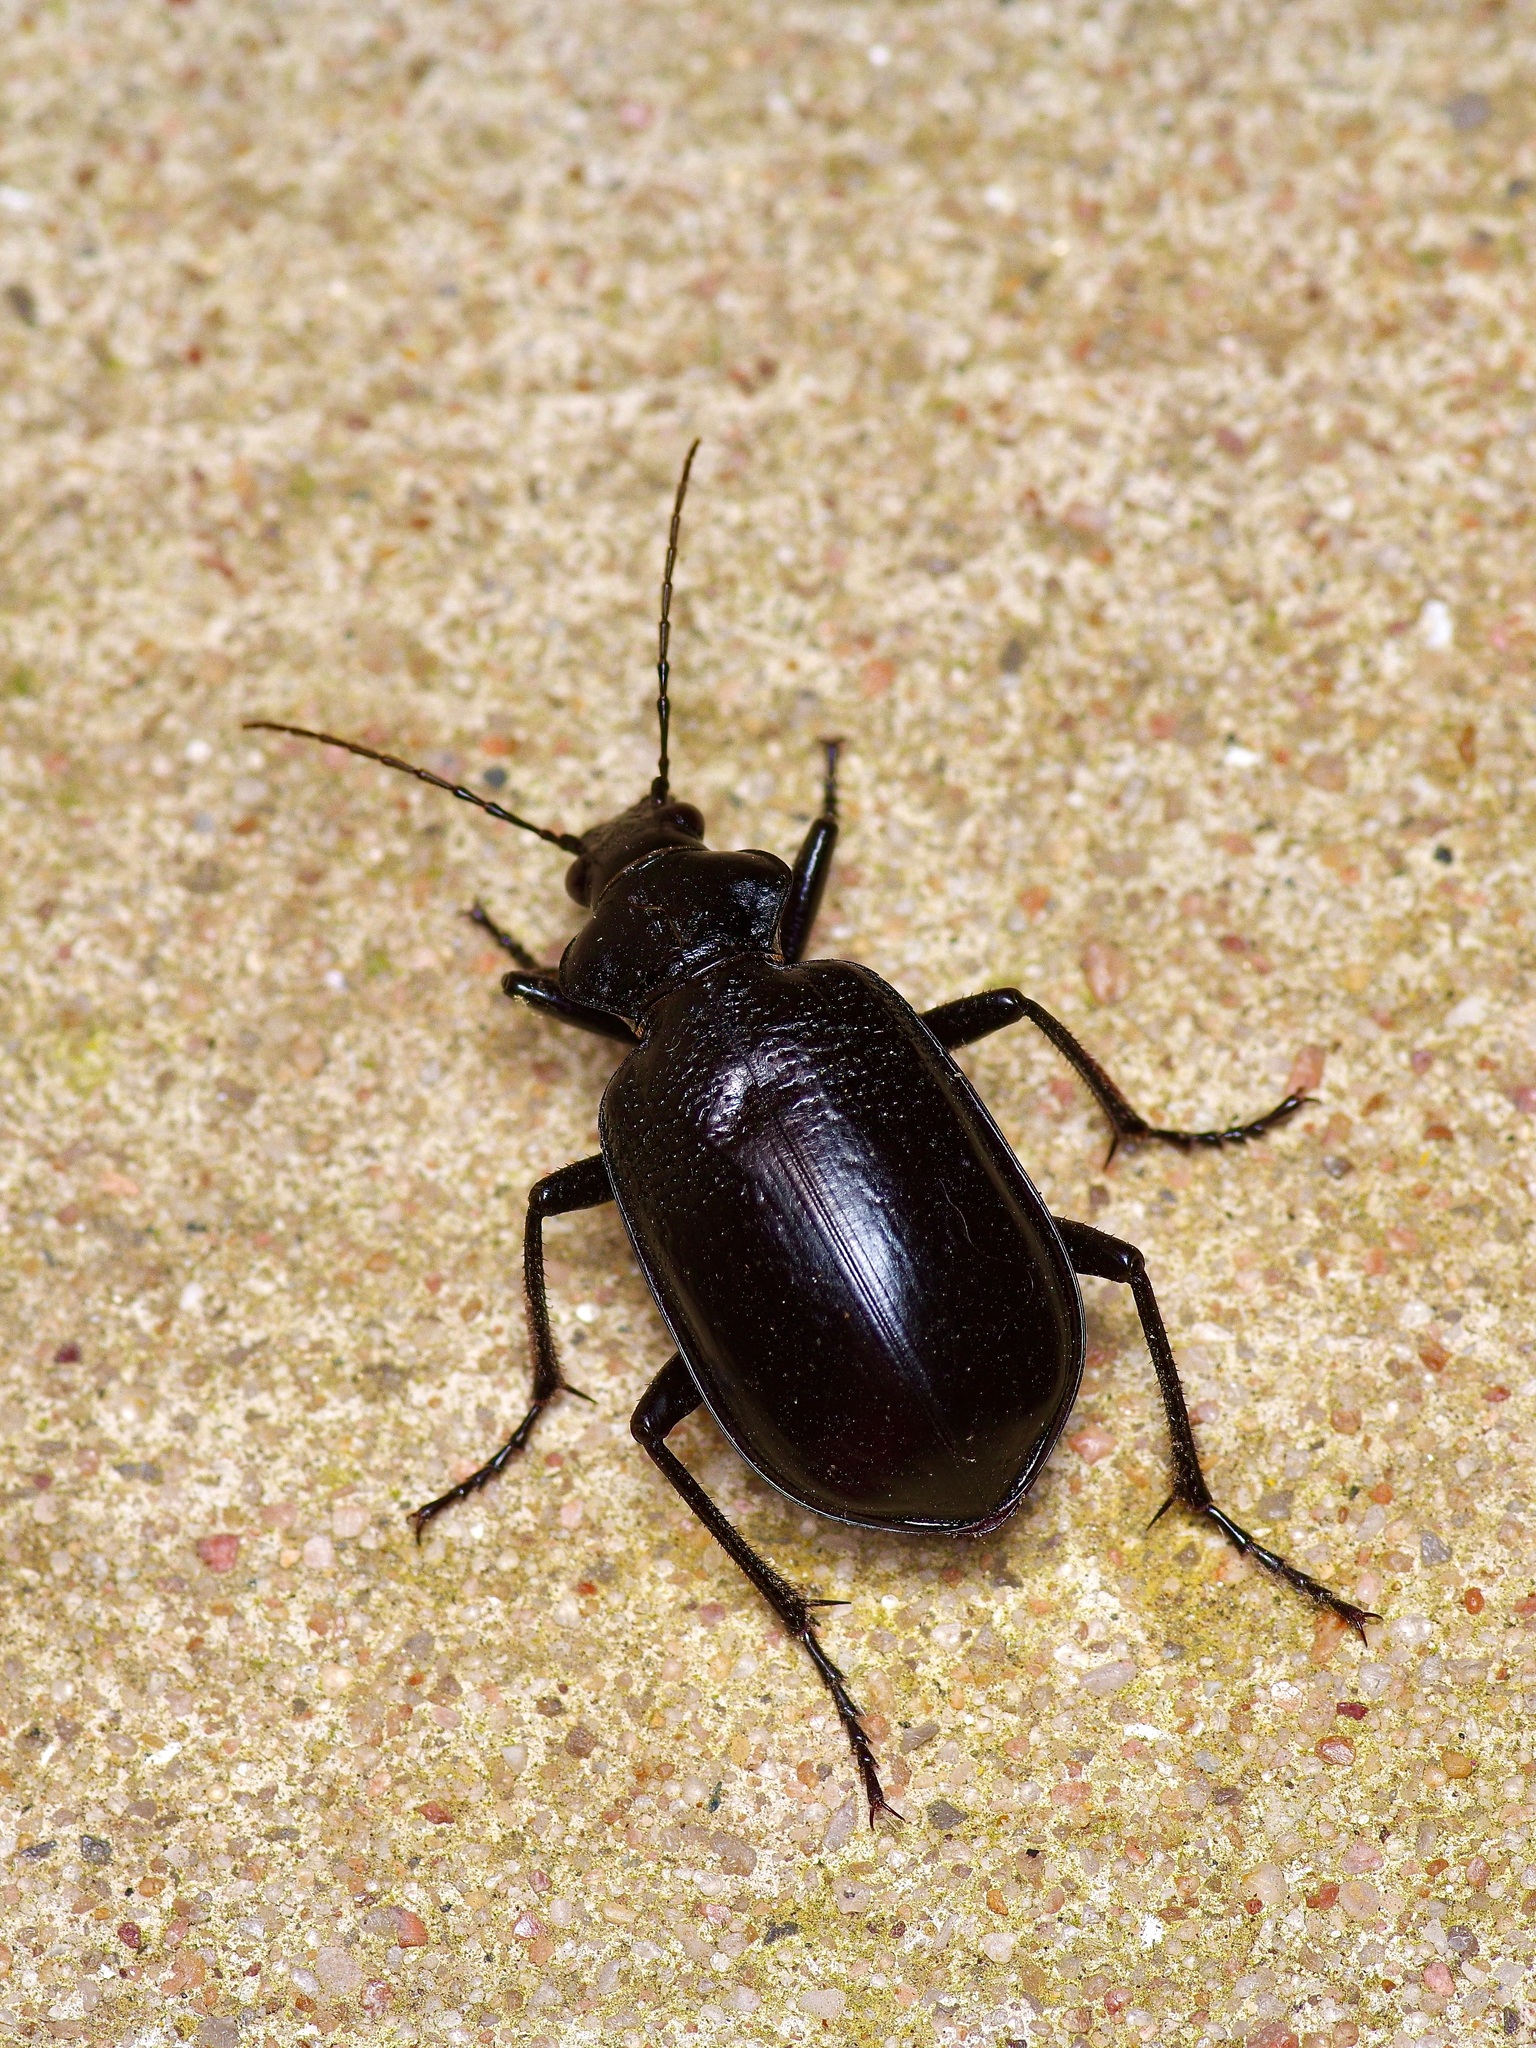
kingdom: Animalia
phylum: Arthropoda
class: Insecta
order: Coleoptera
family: Carabidae
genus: Calosoma
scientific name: Calosoma marginale
